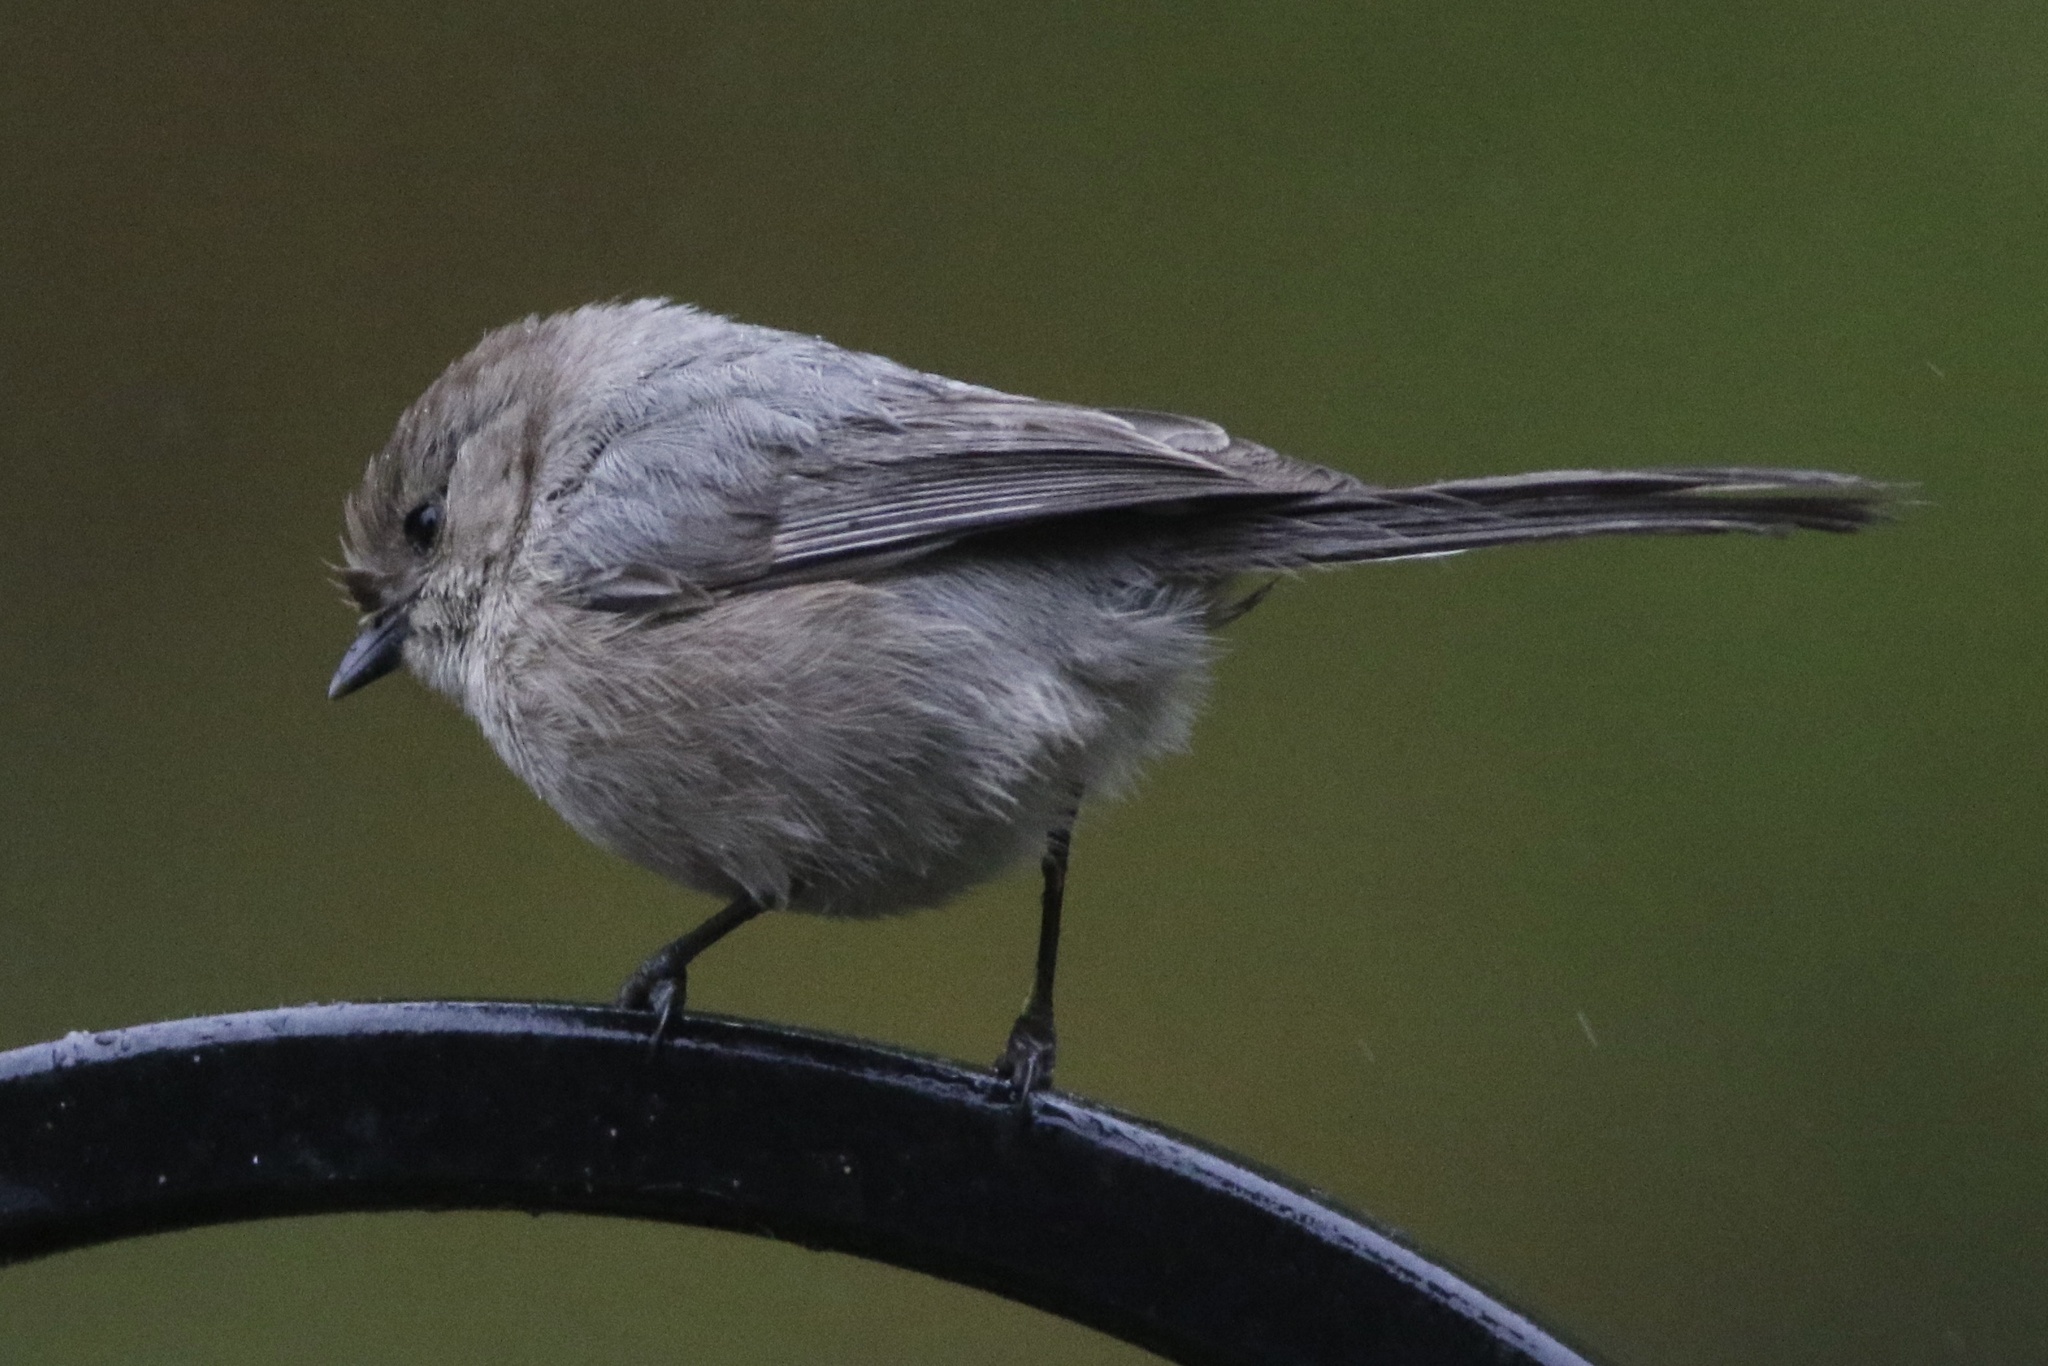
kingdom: Animalia
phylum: Chordata
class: Aves
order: Passeriformes
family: Aegithalidae
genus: Psaltriparus
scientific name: Psaltriparus minimus
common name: American bushtit
